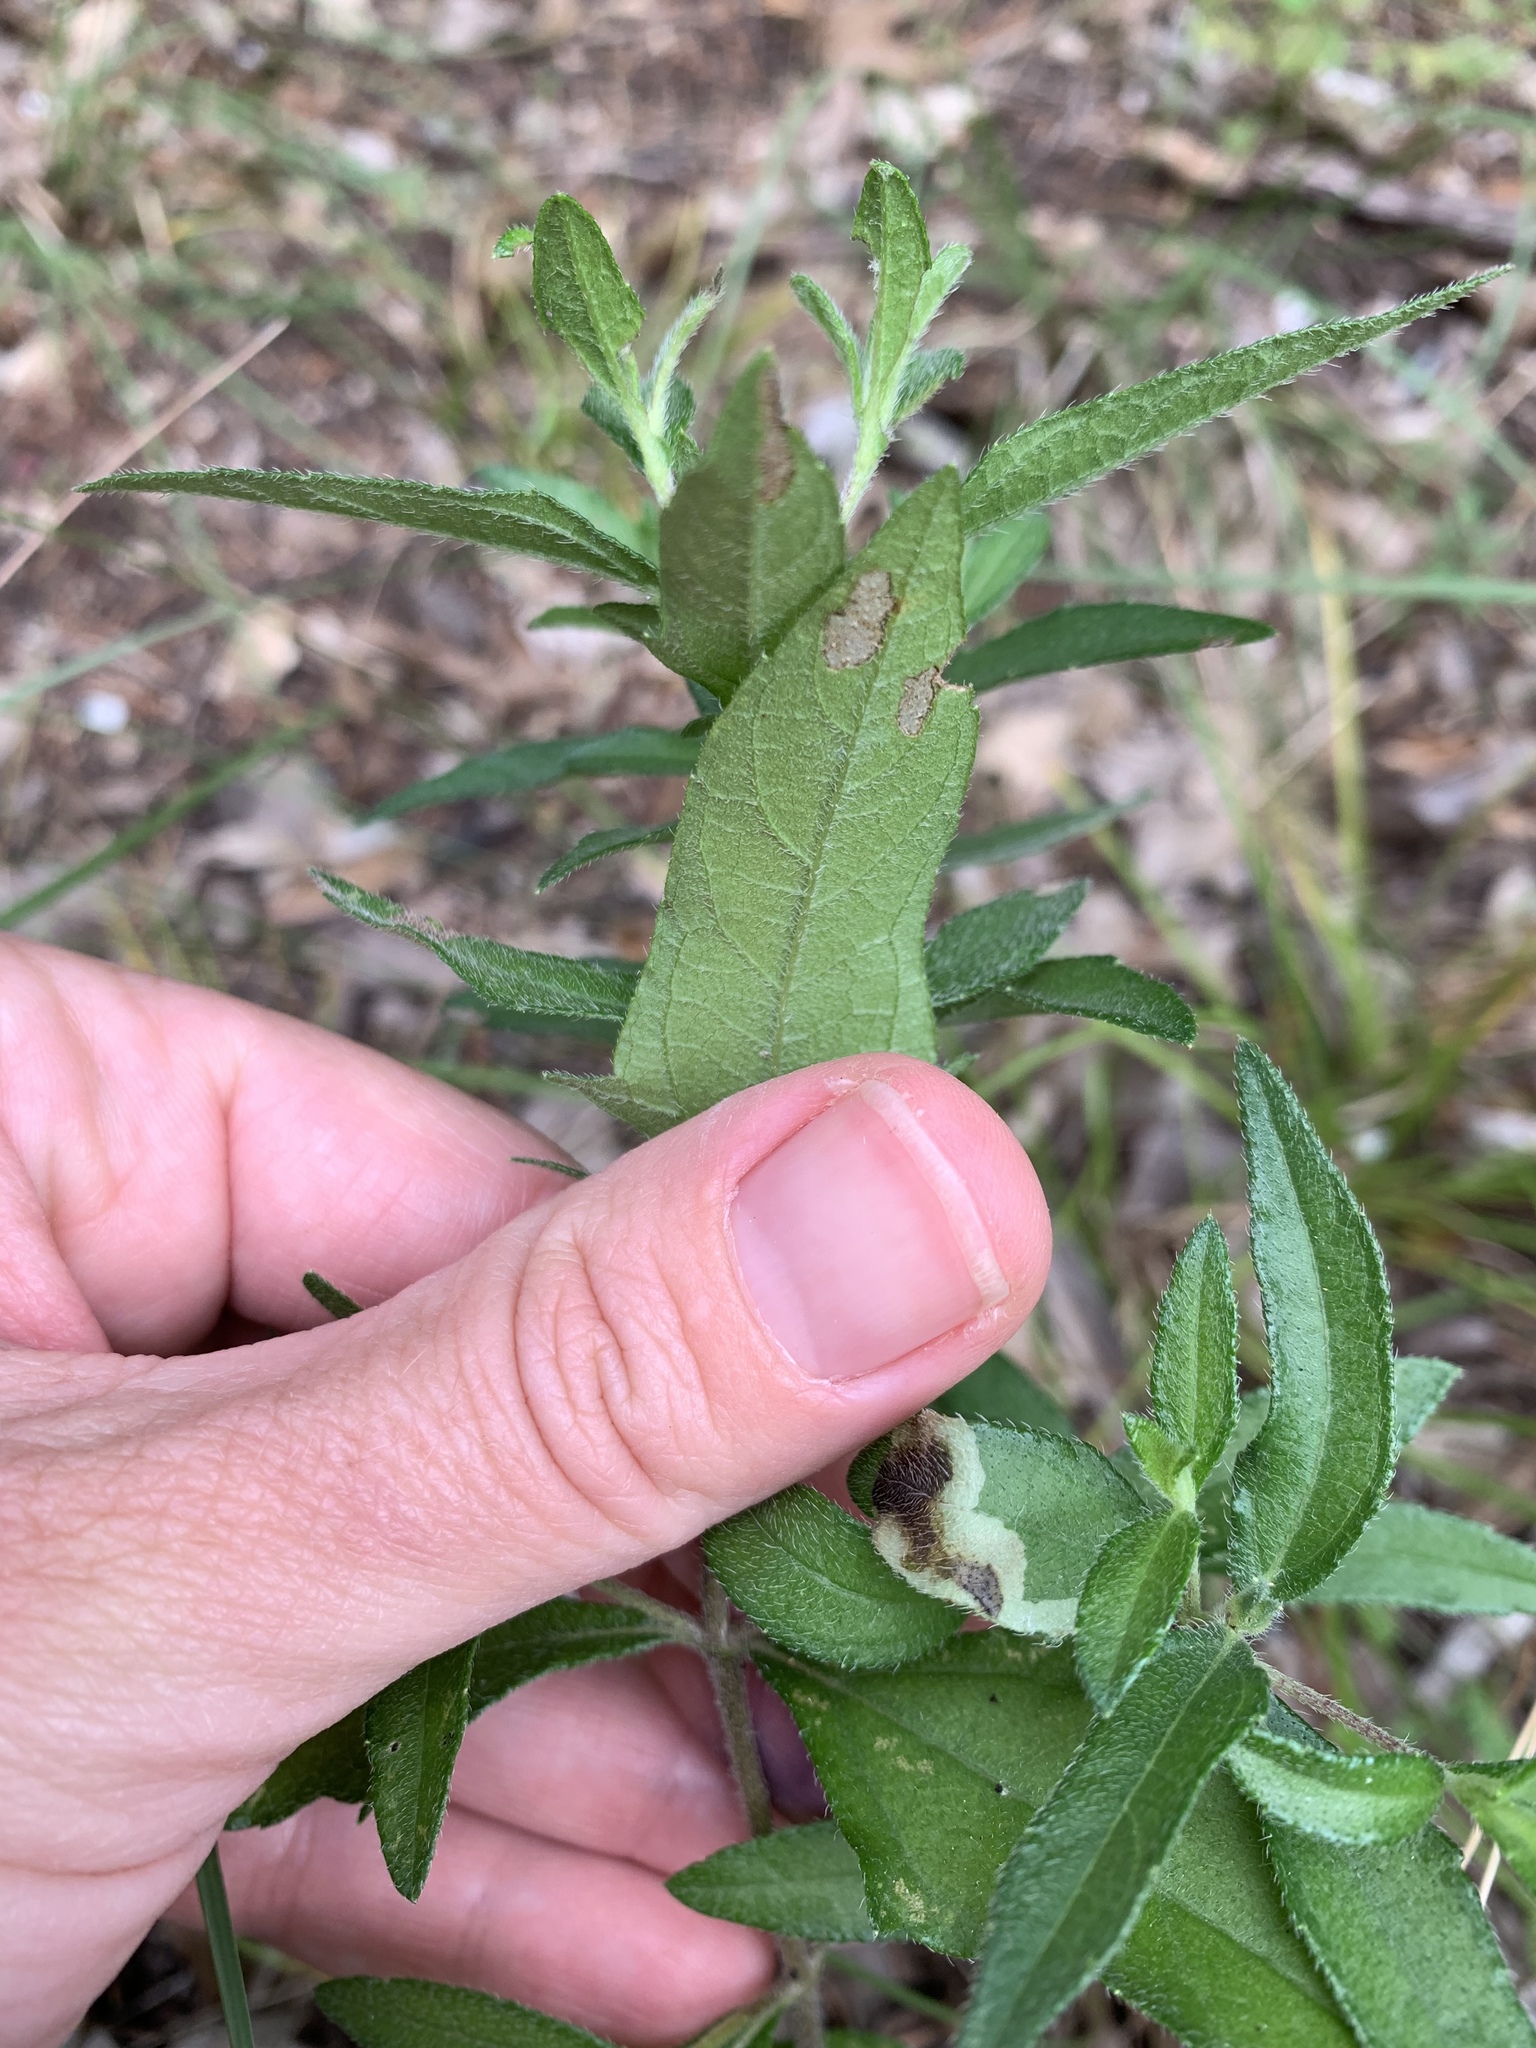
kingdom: Plantae
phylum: Tracheophyta
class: Magnoliopsida
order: Asterales
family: Asteraceae
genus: Wedelia
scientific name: Wedelia acapulcensis
